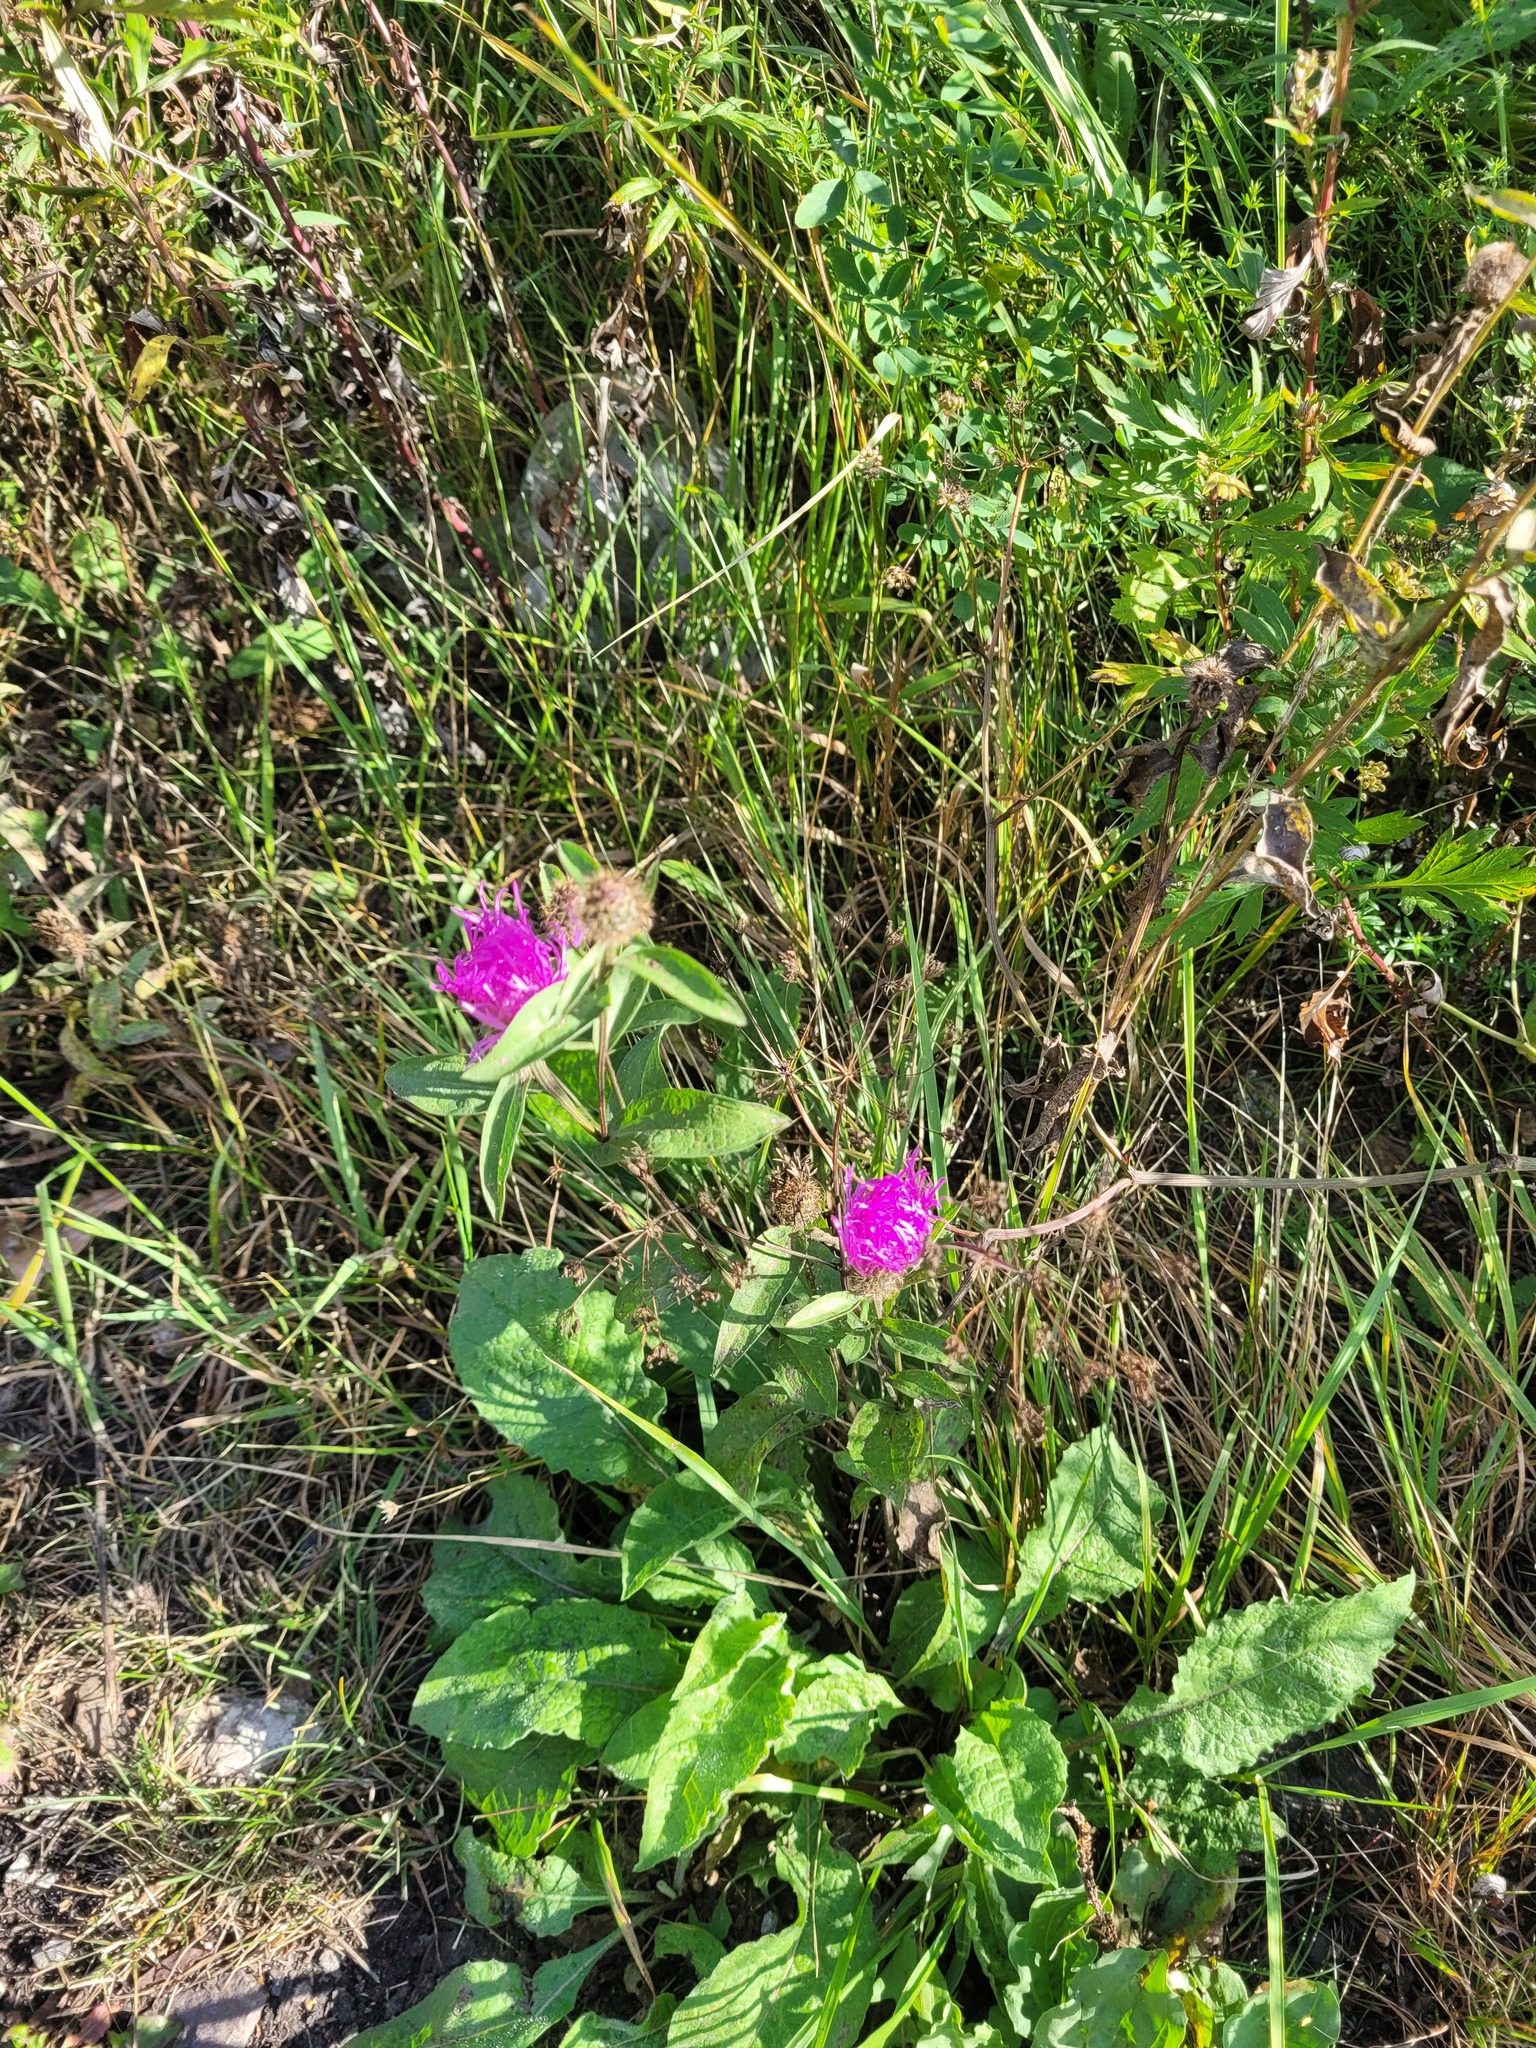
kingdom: Plantae
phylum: Tracheophyta
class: Magnoliopsida
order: Asterales
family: Asteraceae
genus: Centaurea
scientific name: Centaurea pseudophrygia
